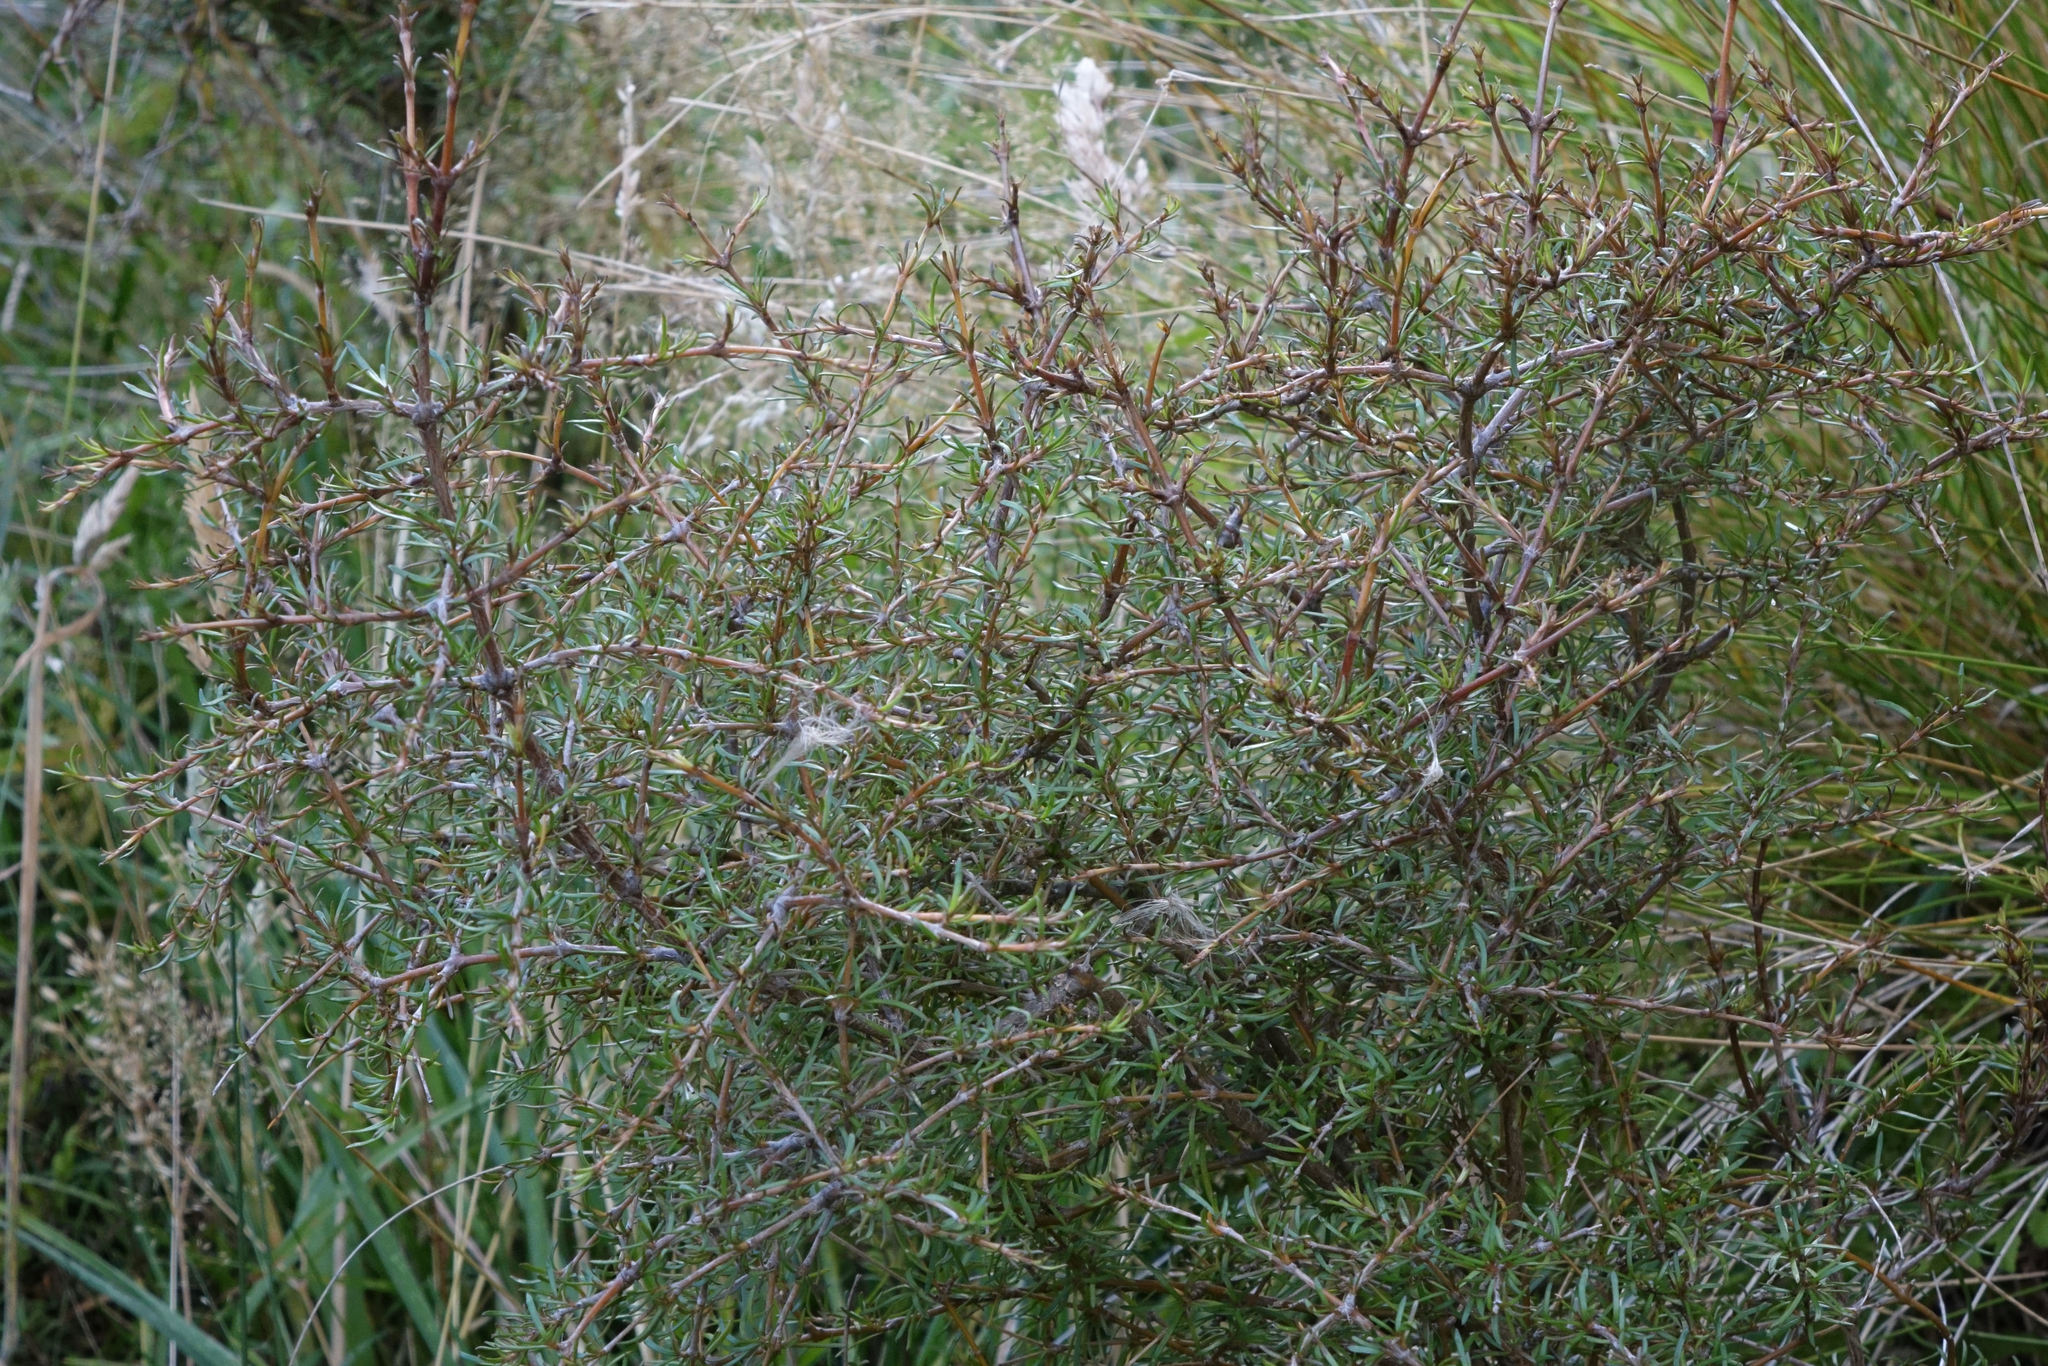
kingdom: Plantae
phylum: Tracheophyta
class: Magnoliopsida
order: Gentianales
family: Rubiaceae
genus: Coprosma
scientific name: Coprosma rugosa
